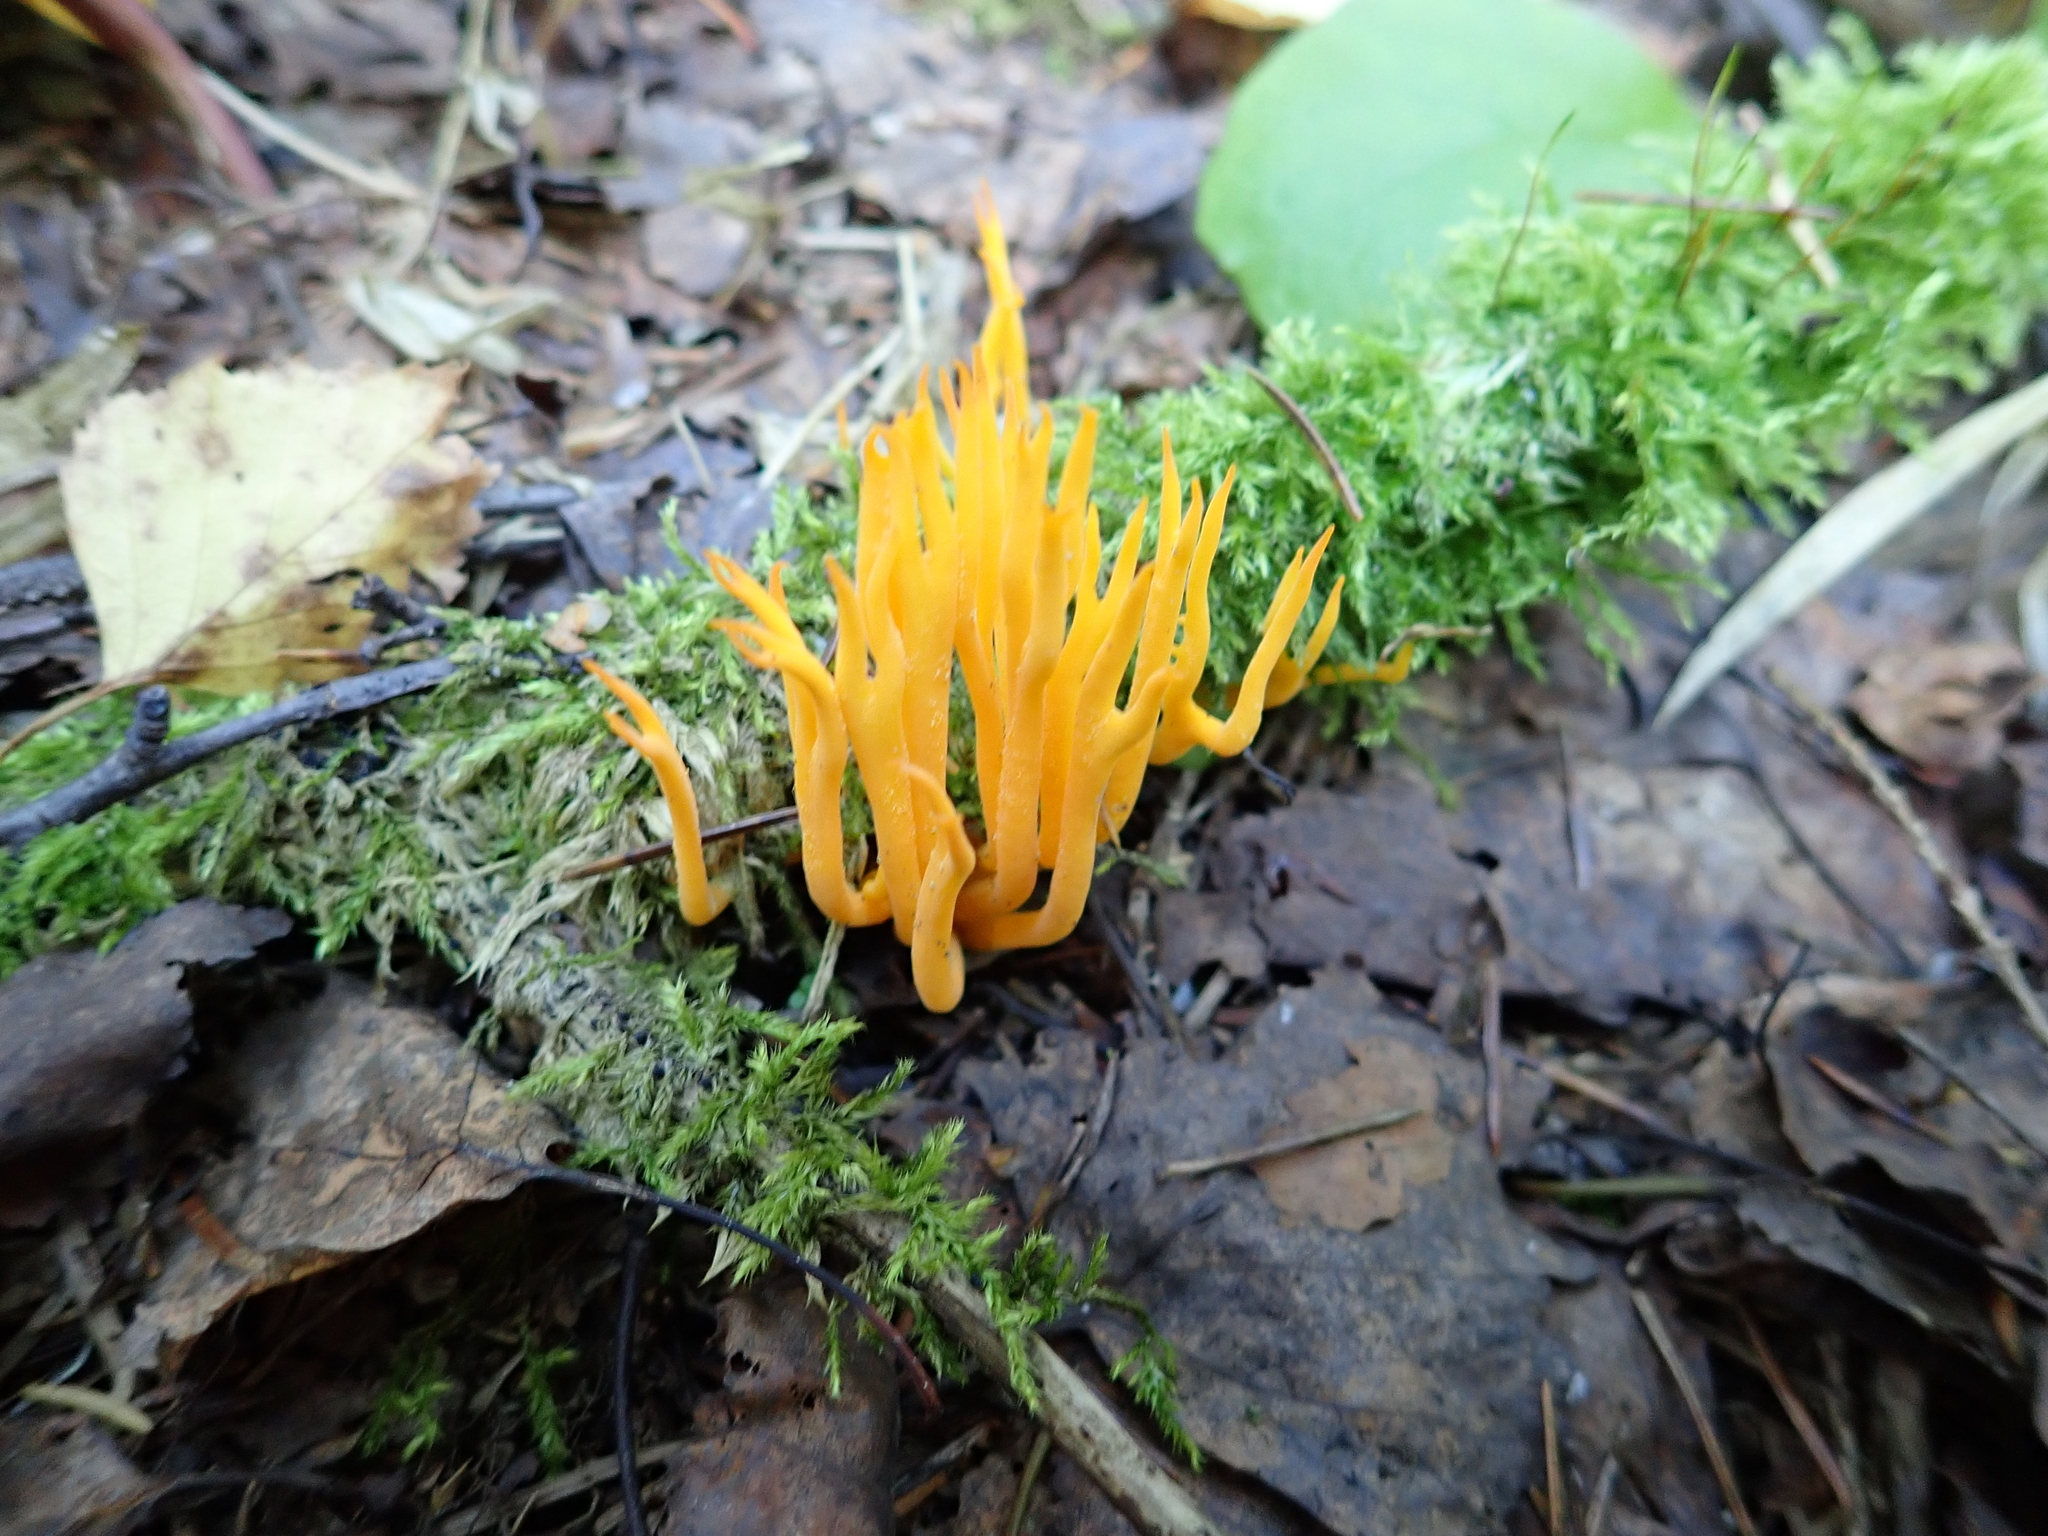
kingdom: Fungi
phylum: Basidiomycota
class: Dacrymycetes
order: Dacrymycetales
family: Dacrymycetaceae
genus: Calocera
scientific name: Calocera viscosa
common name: Yellow stagshorn
